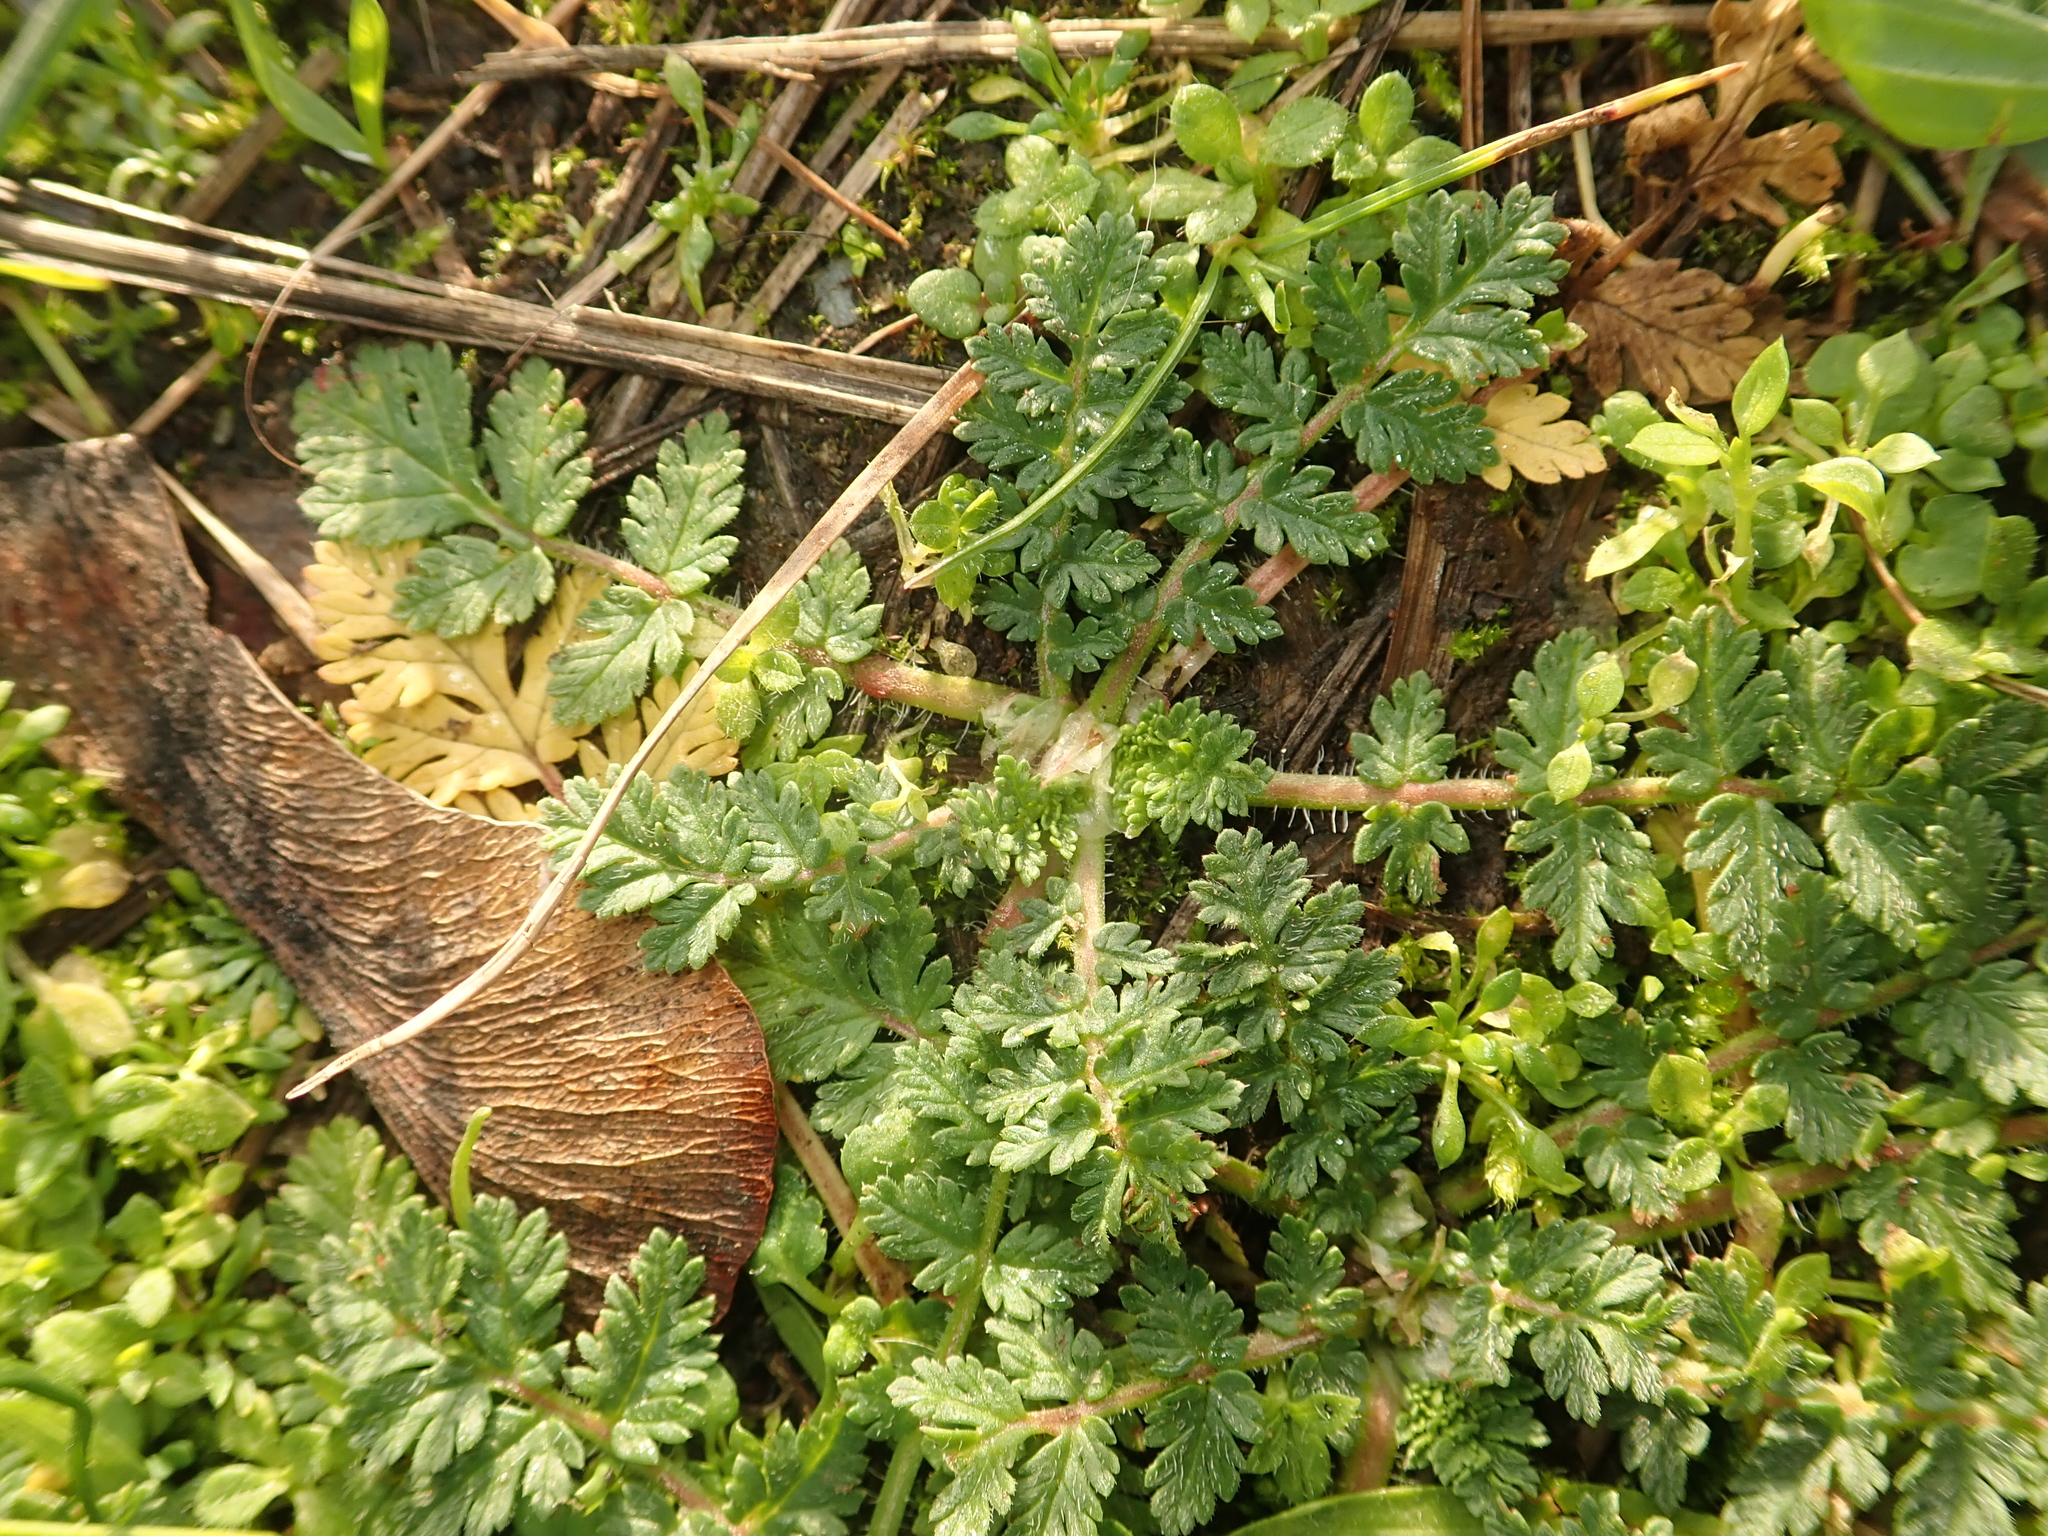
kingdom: Plantae
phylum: Tracheophyta
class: Magnoliopsida
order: Geraniales
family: Geraniaceae
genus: Erodium
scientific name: Erodium cicutarium
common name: Common stork's-bill
